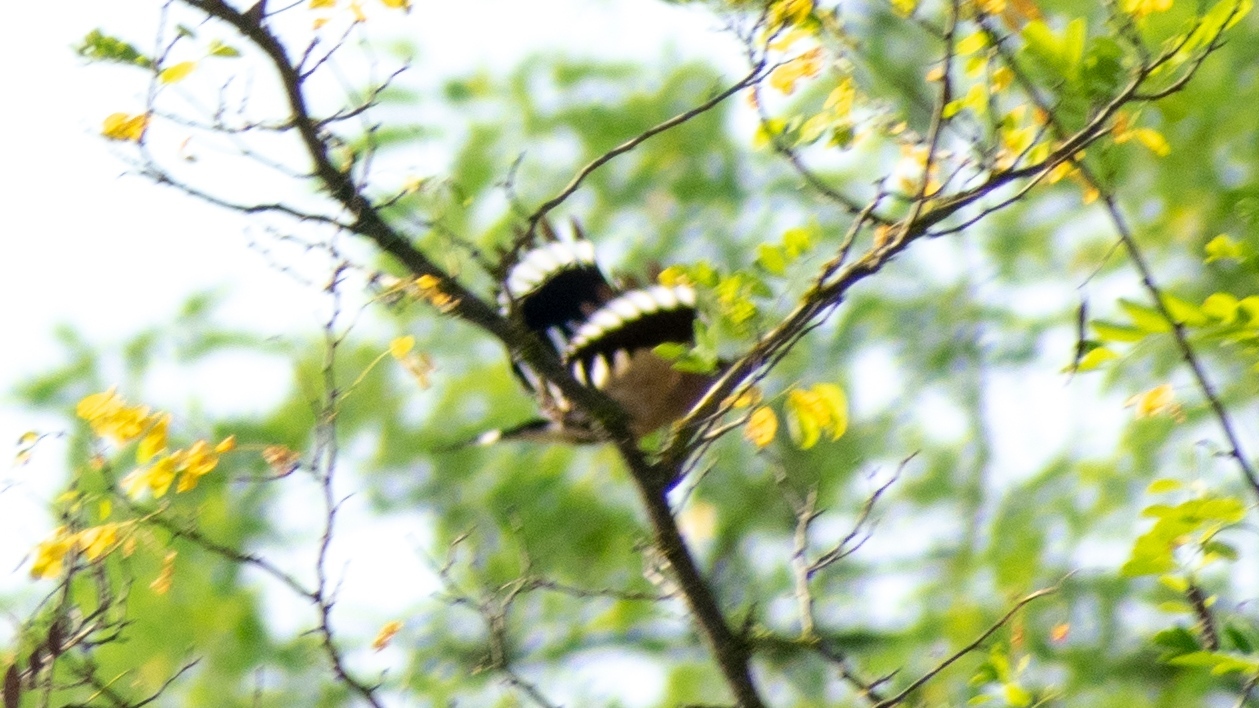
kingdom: Animalia
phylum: Chordata
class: Aves
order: Bucerotiformes
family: Upupidae
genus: Upupa
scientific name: Upupa epops
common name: Eurasian hoopoe
